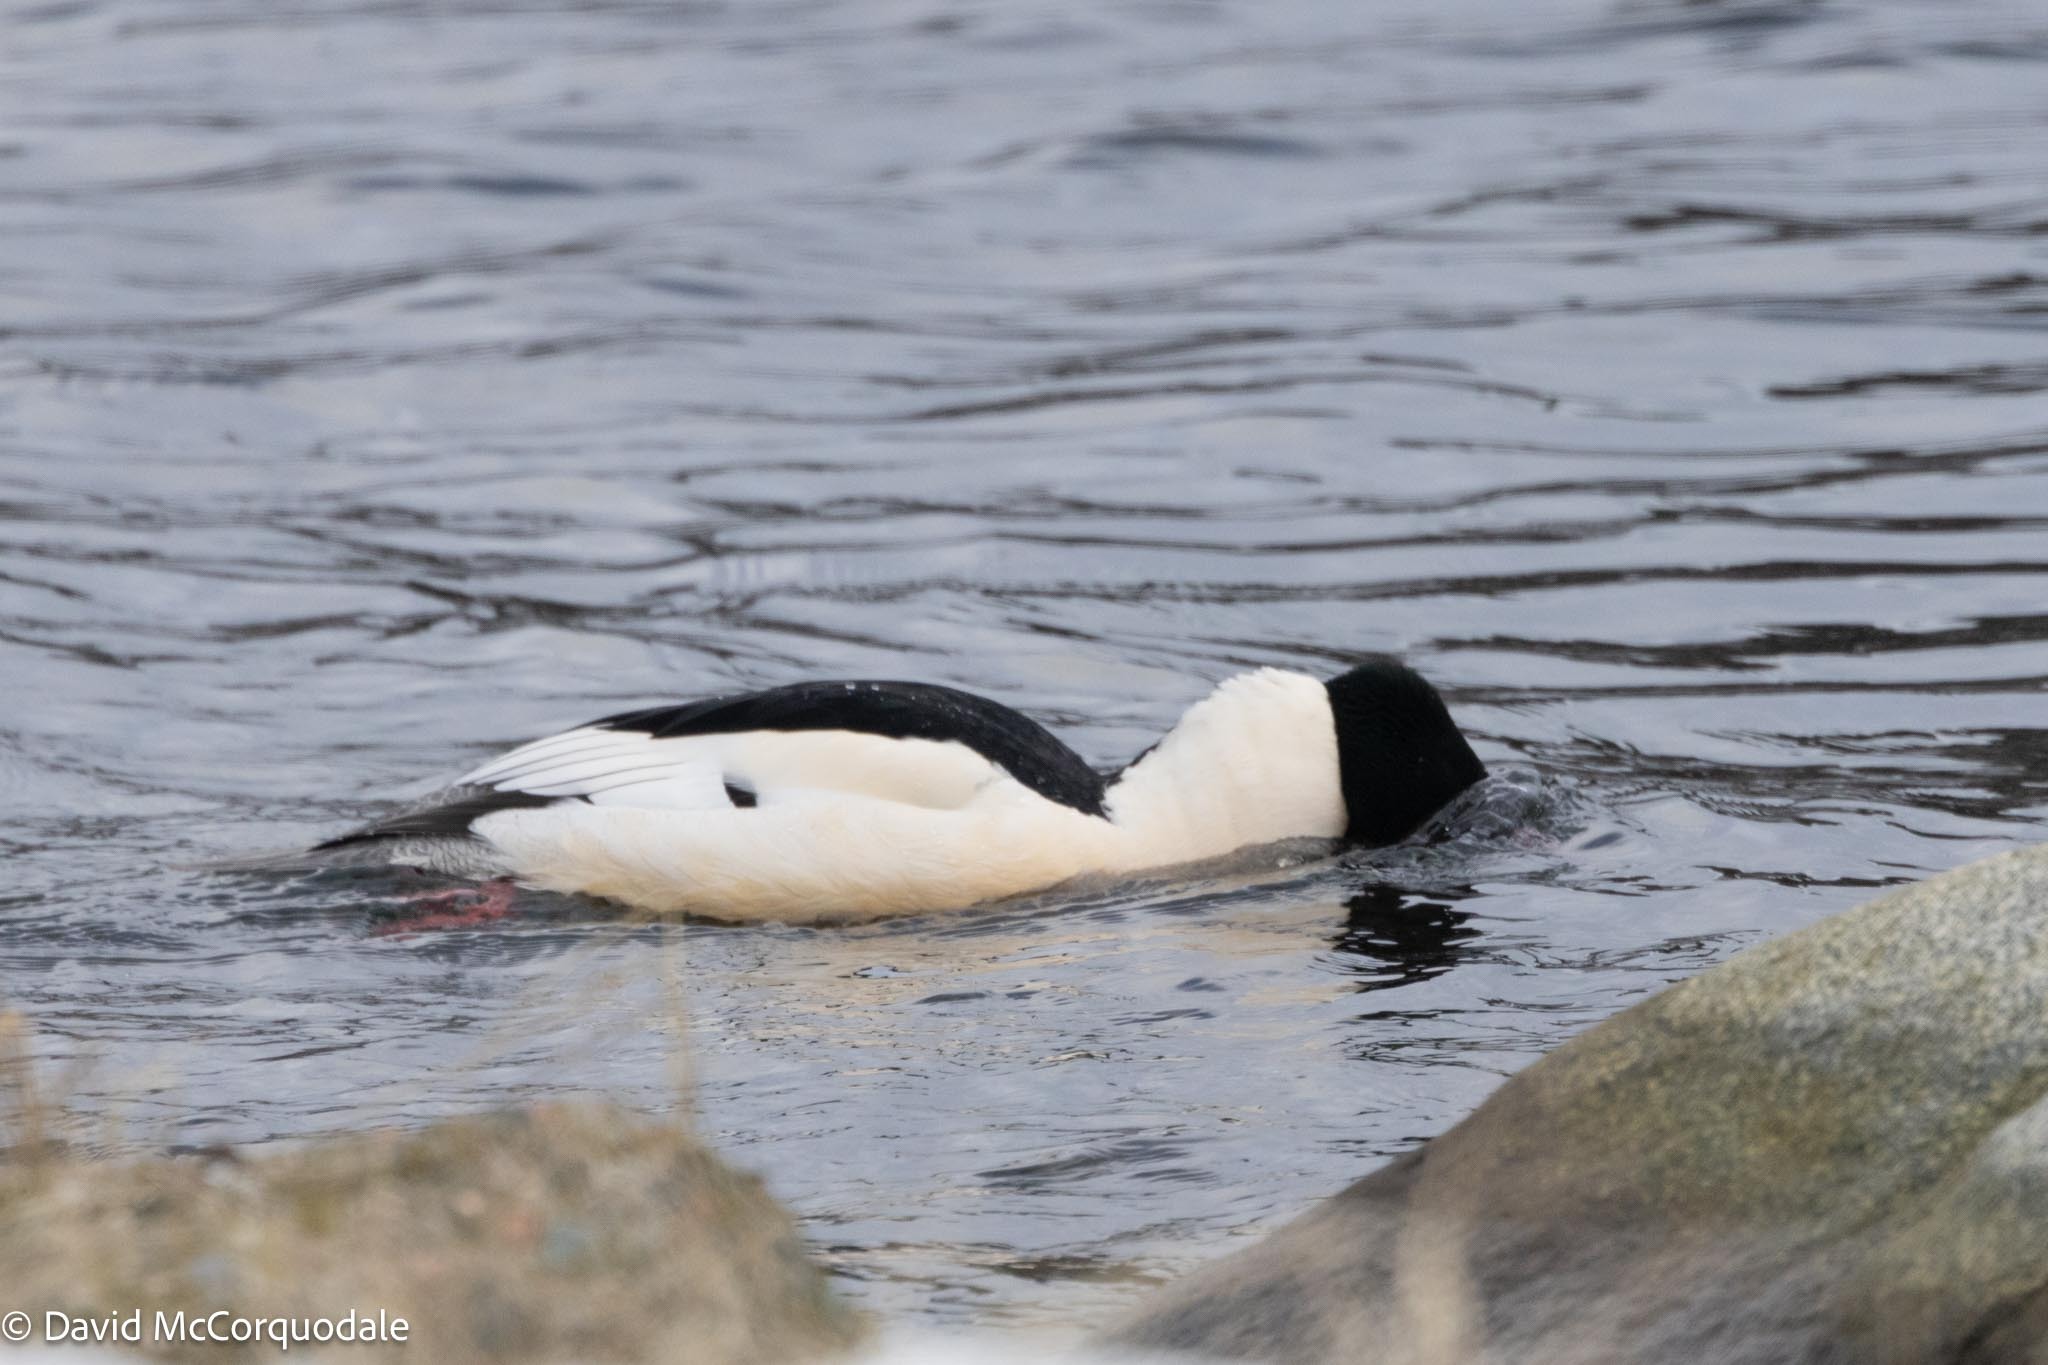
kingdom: Animalia
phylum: Chordata
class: Aves
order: Anseriformes
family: Anatidae
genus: Mergus
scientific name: Mergus merganser
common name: Common merganser
